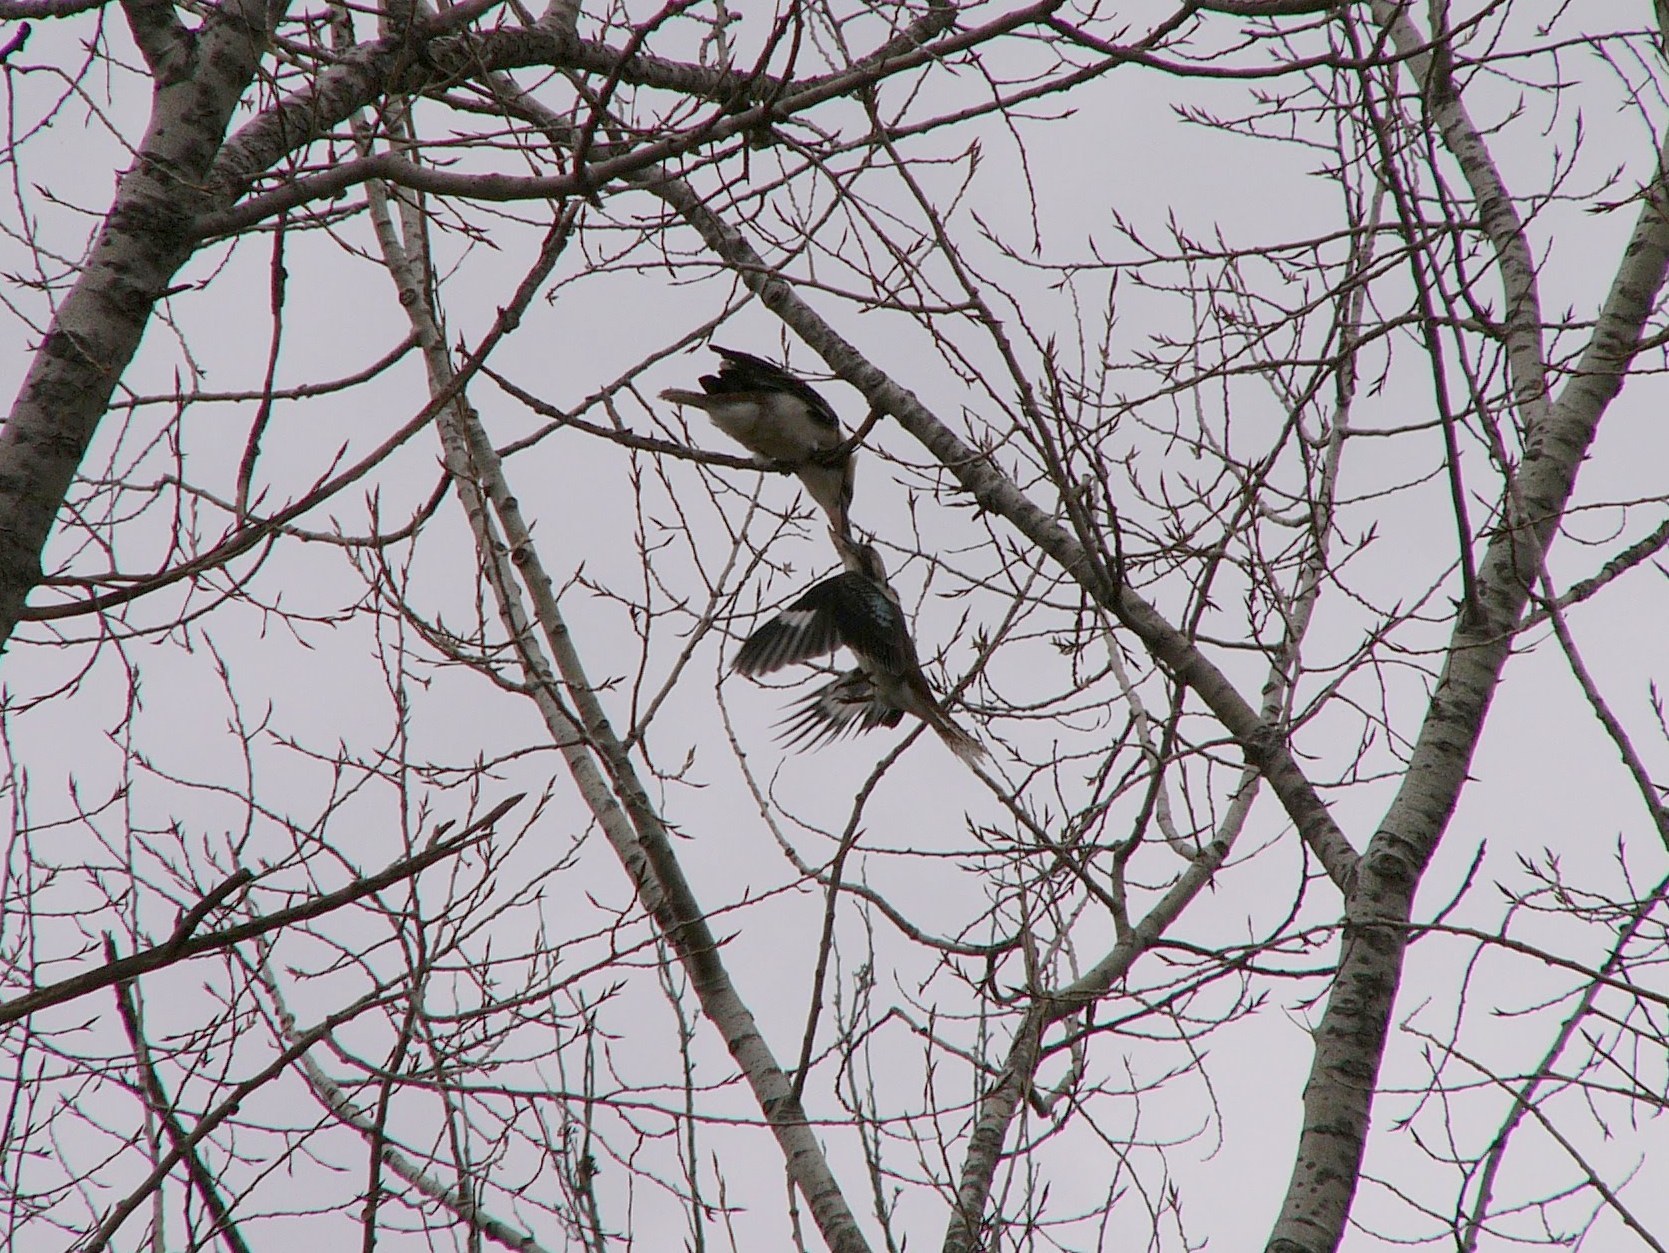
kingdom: Animalia
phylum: Chordata
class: Aves
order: Coraciiformes
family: Alcedinidae
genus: Dacelo
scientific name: Dacelo novaeguineae
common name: Laughing kookaburra
